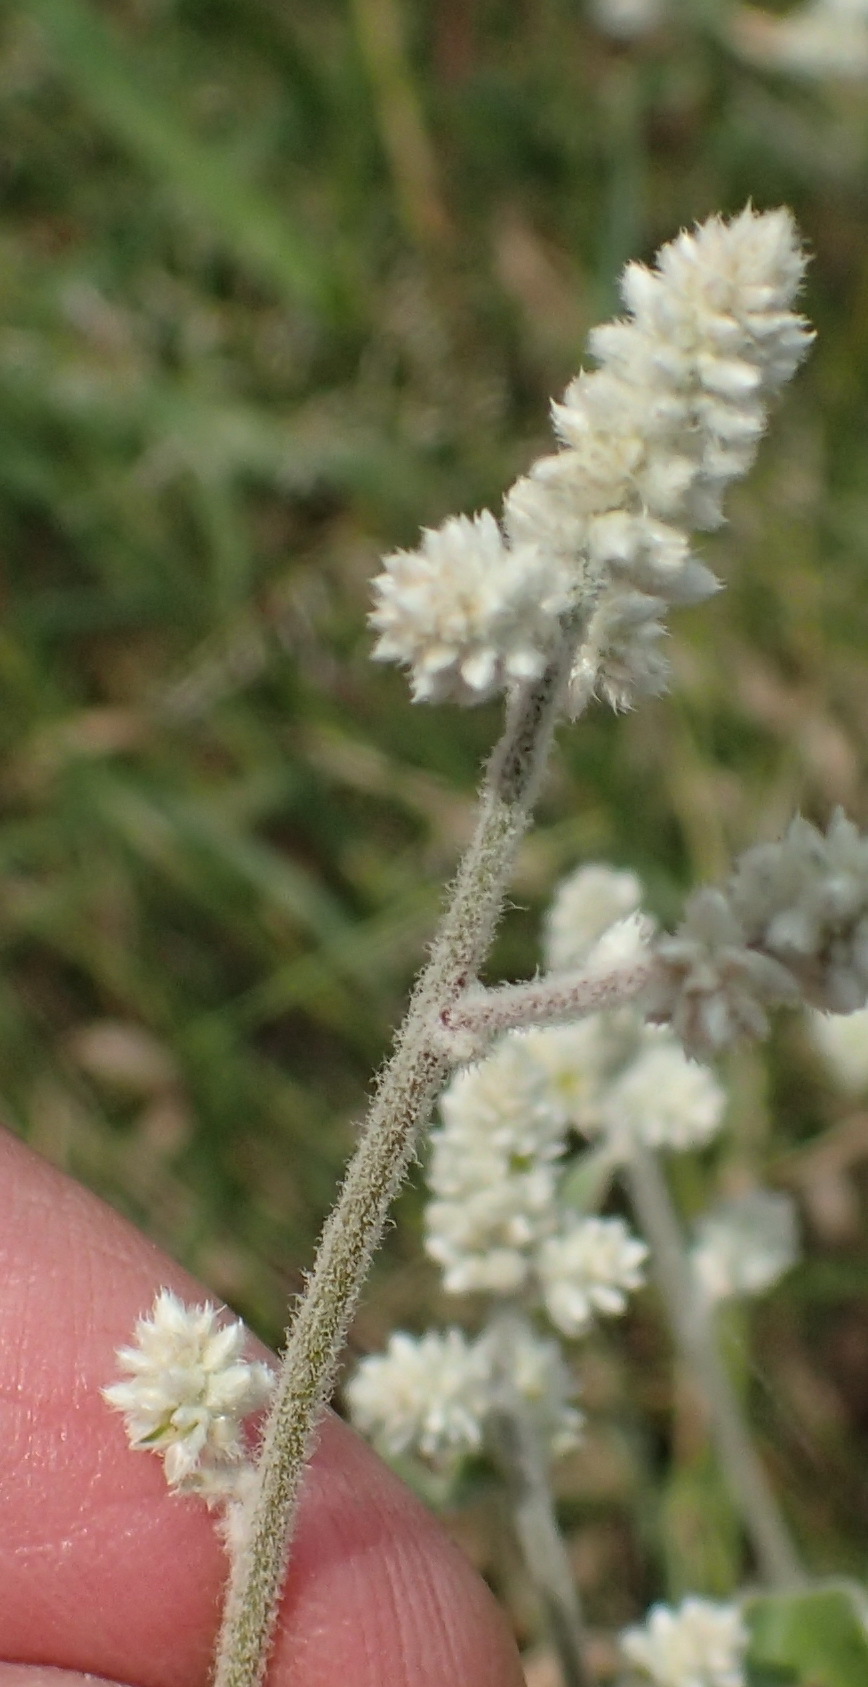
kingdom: Plantae
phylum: Tracheophyta
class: Magnoliopsida
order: Caryophyllales
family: Amaranthaceae
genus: Ouret
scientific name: Ouret leucura
